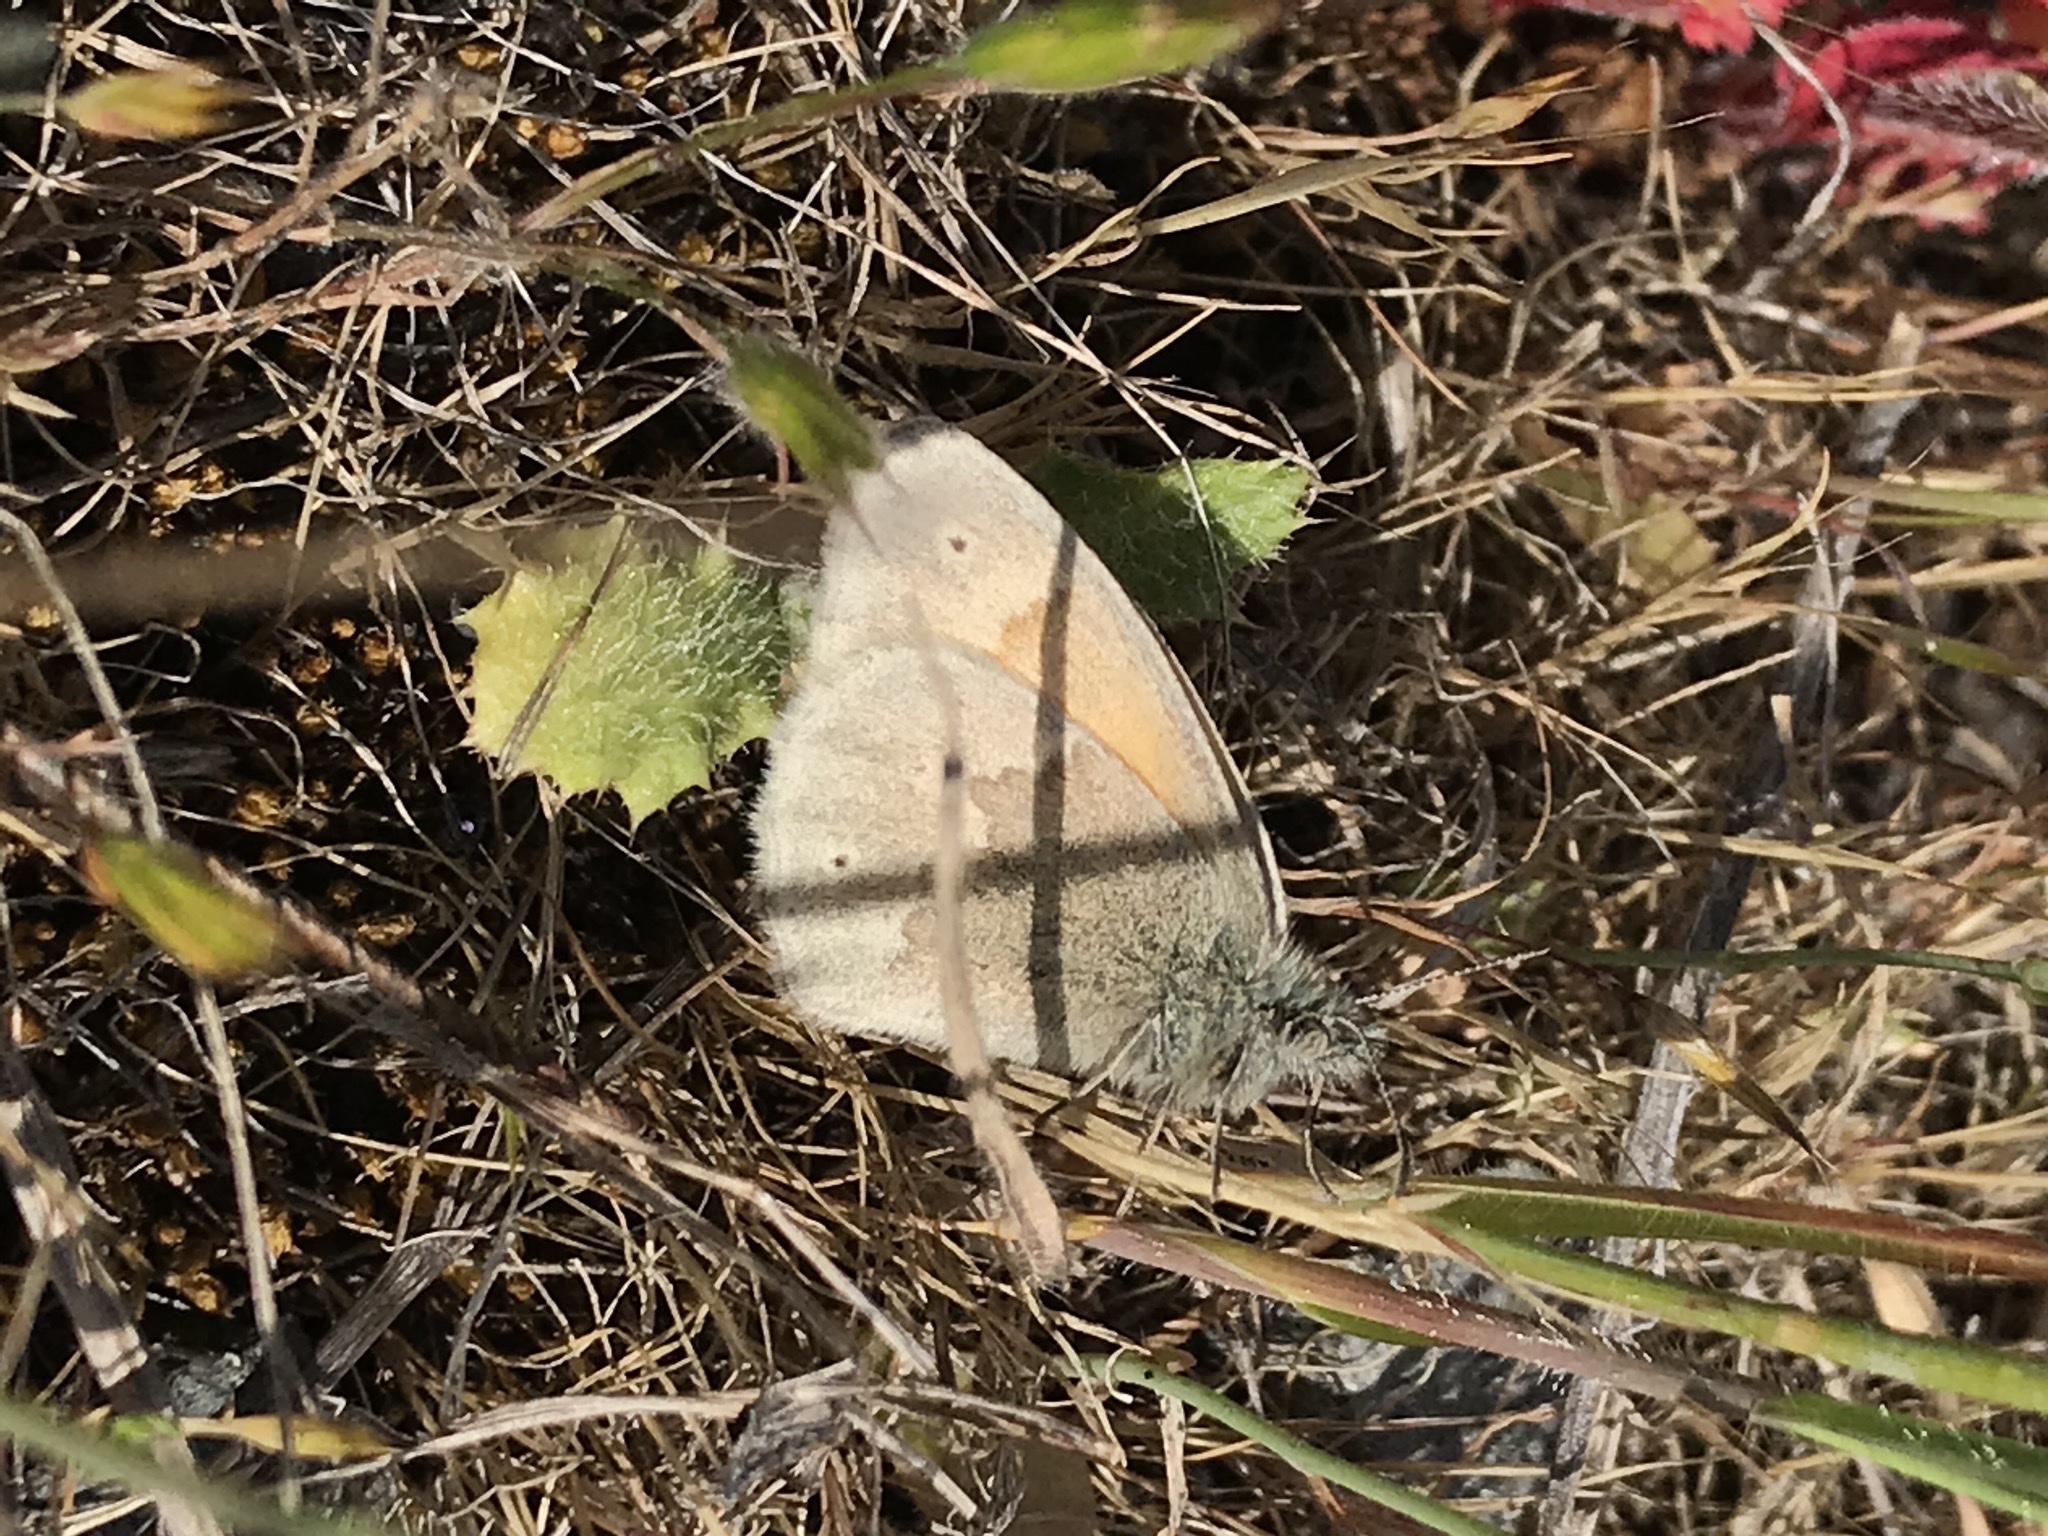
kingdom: Animalia
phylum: Arthropoda
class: Insecta
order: Lepidoptera
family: Nymphalidae
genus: Coenonympha
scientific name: Coenonympha california
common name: Common ringlet
